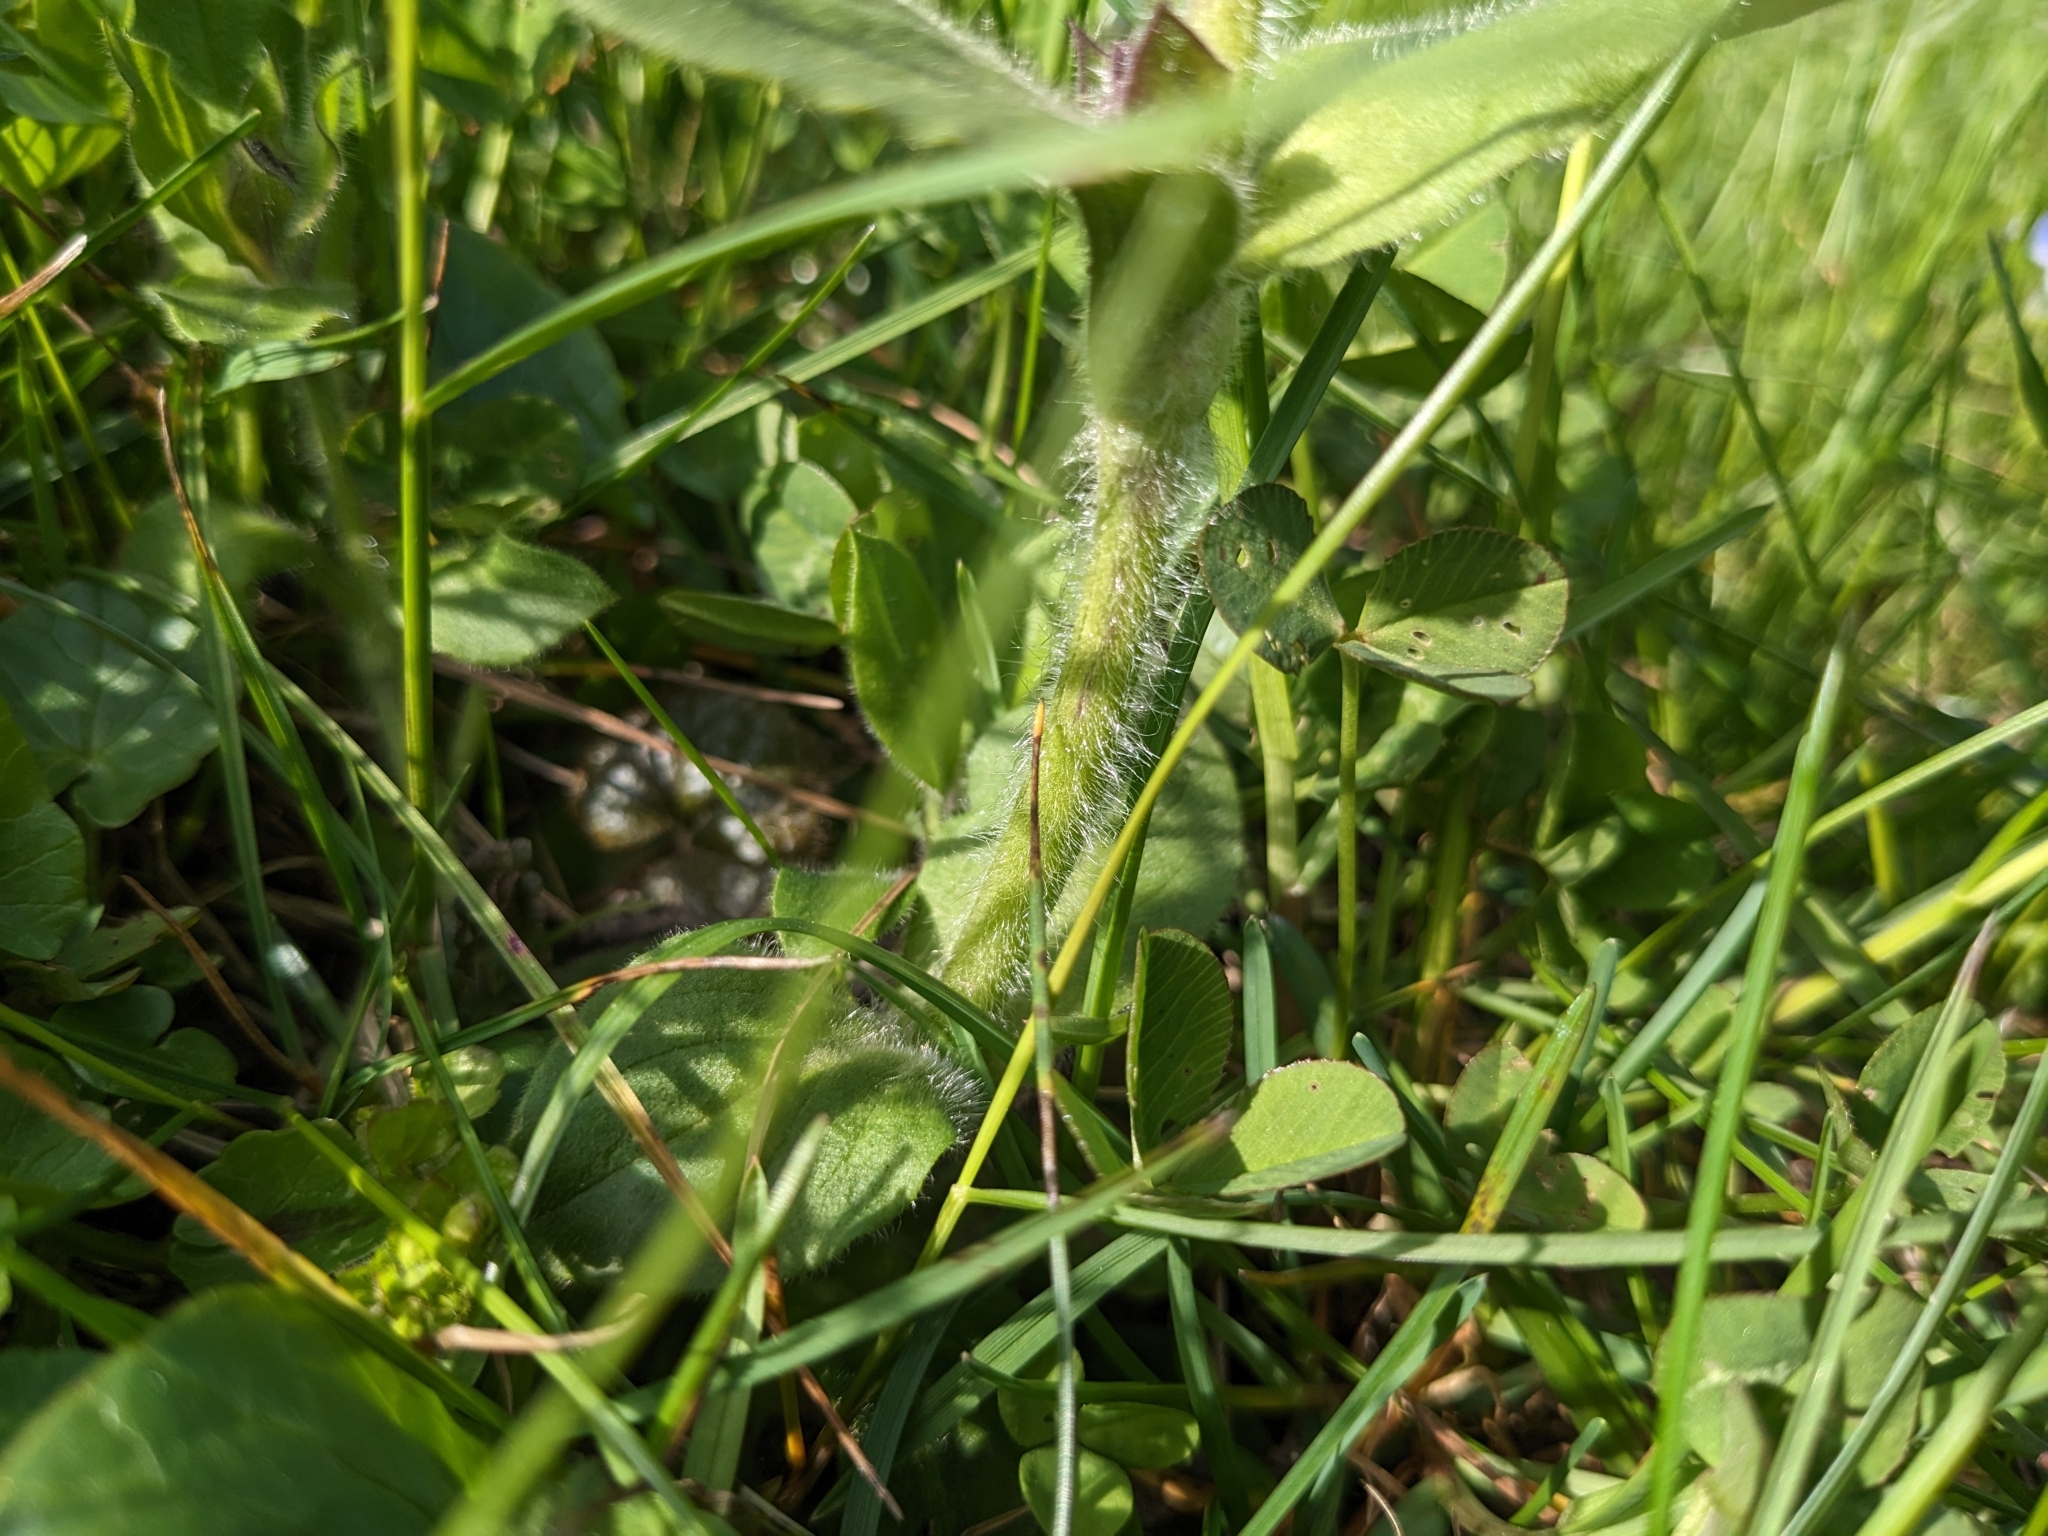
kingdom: Plantae
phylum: Tracheophyta
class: Magnoliopsida
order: Caryophyllales
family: Caryophyllaceae
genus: Silene
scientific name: Silene dioica
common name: Red campion
